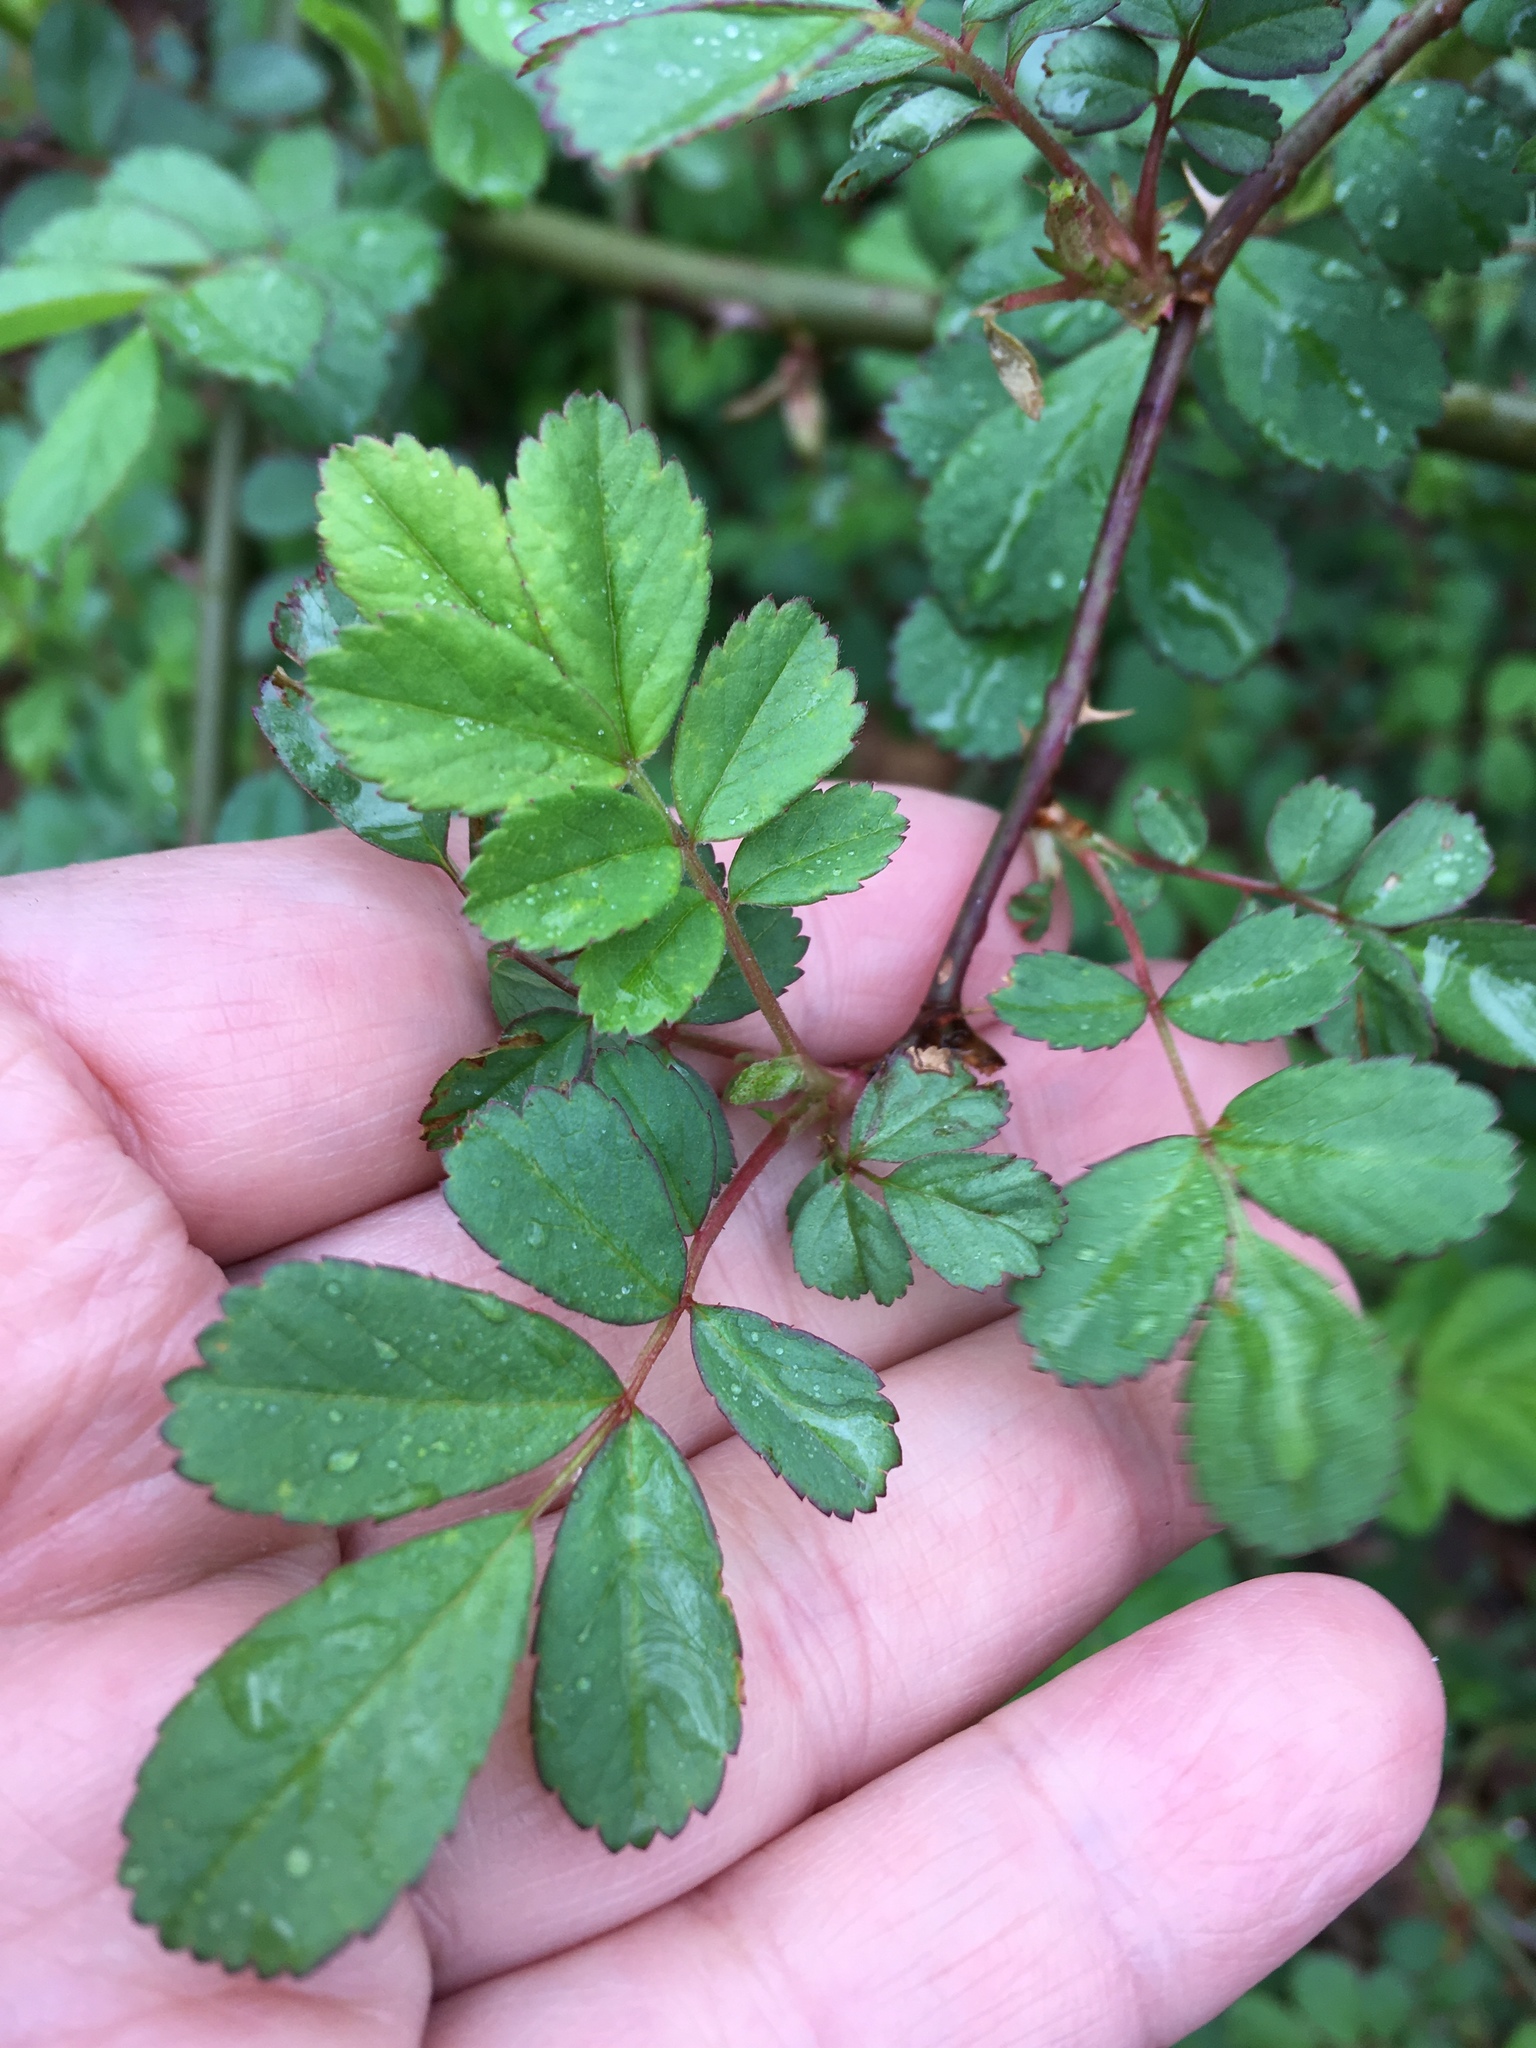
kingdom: Plantae
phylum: Tracheophyta
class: Magnoliopsida
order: Rosales
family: Rosaceae
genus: Rosa
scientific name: Rosa multiflora
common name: Multiflora rose
